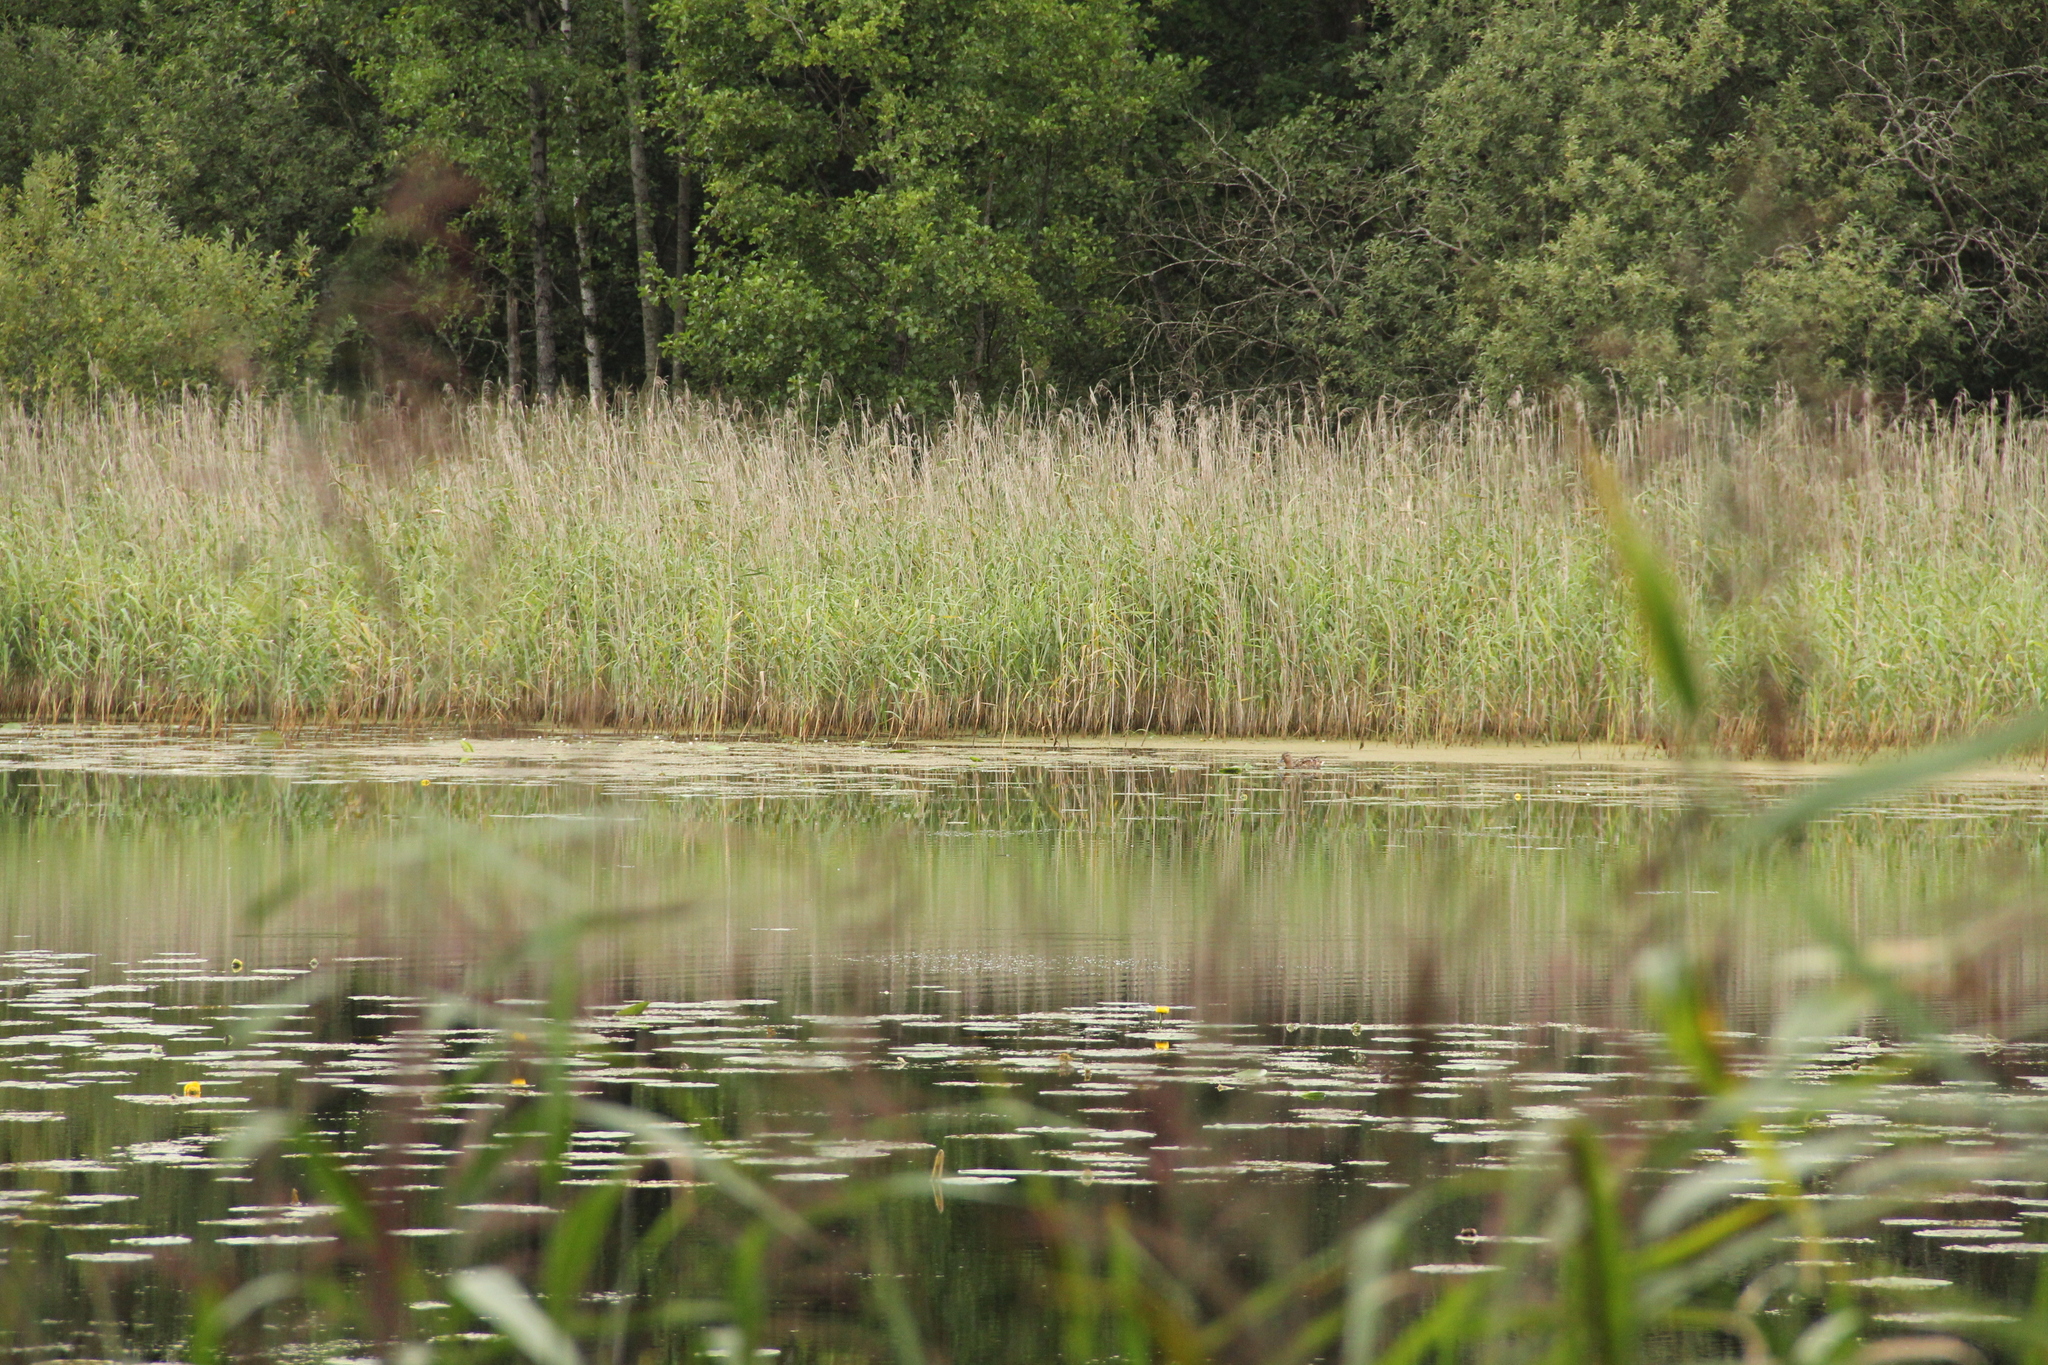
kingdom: Animalia
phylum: Chordata
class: Aves
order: Anseriformes
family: Anatidae
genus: Anas
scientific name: Anas platyrhynchos
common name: Mallard
